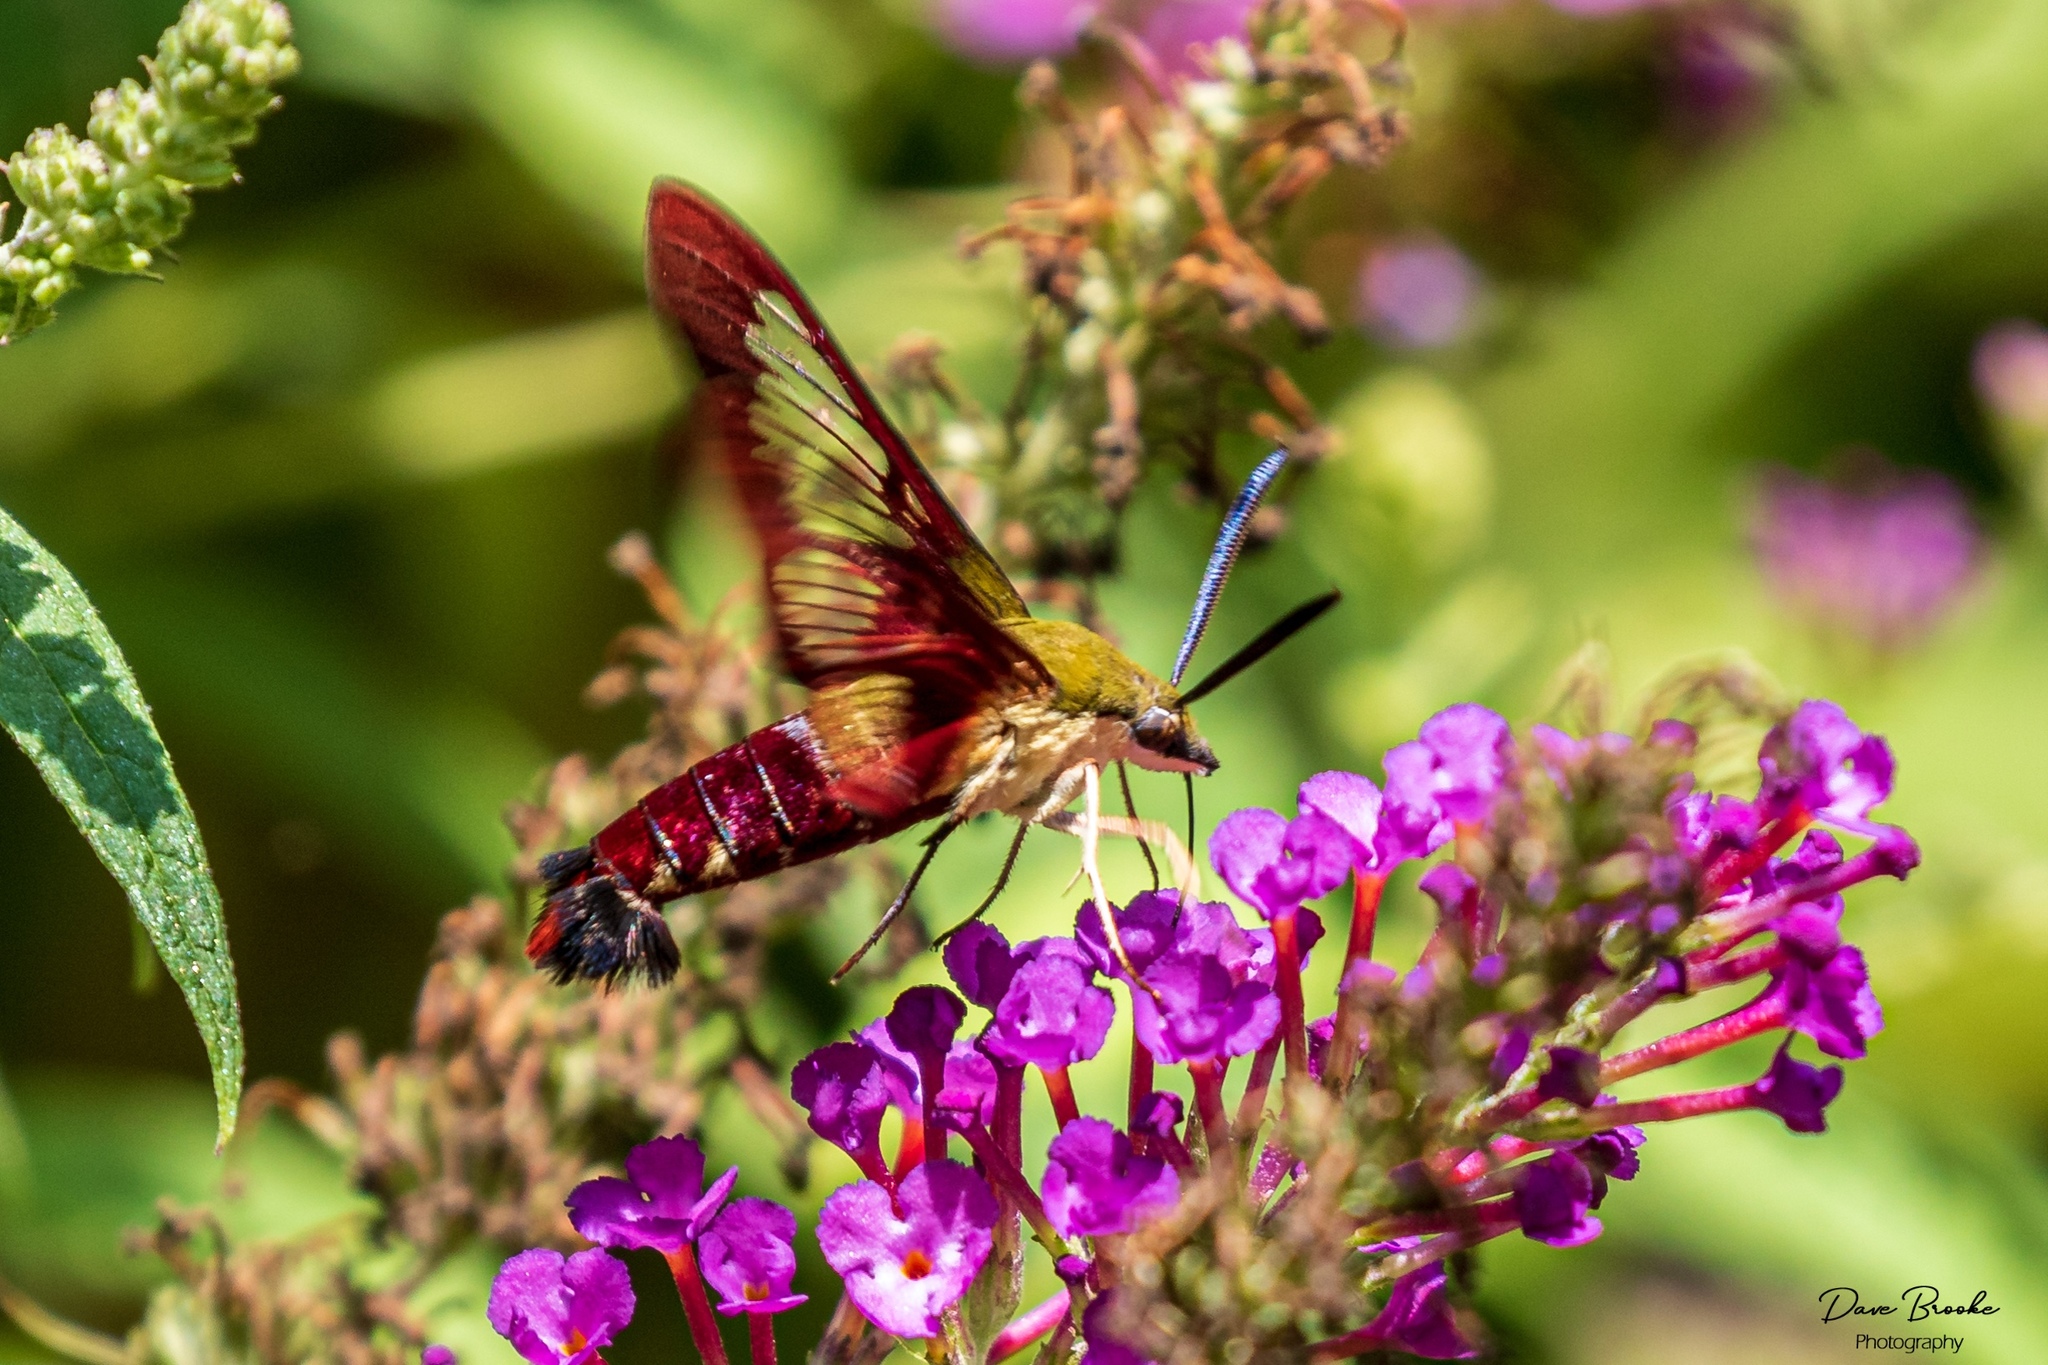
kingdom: Animalia
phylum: Arthropoda
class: Insecta
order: Lepidoptera
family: Sphingidae
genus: Hemaris
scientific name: Hemaris thysbe
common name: Common clear-wing
